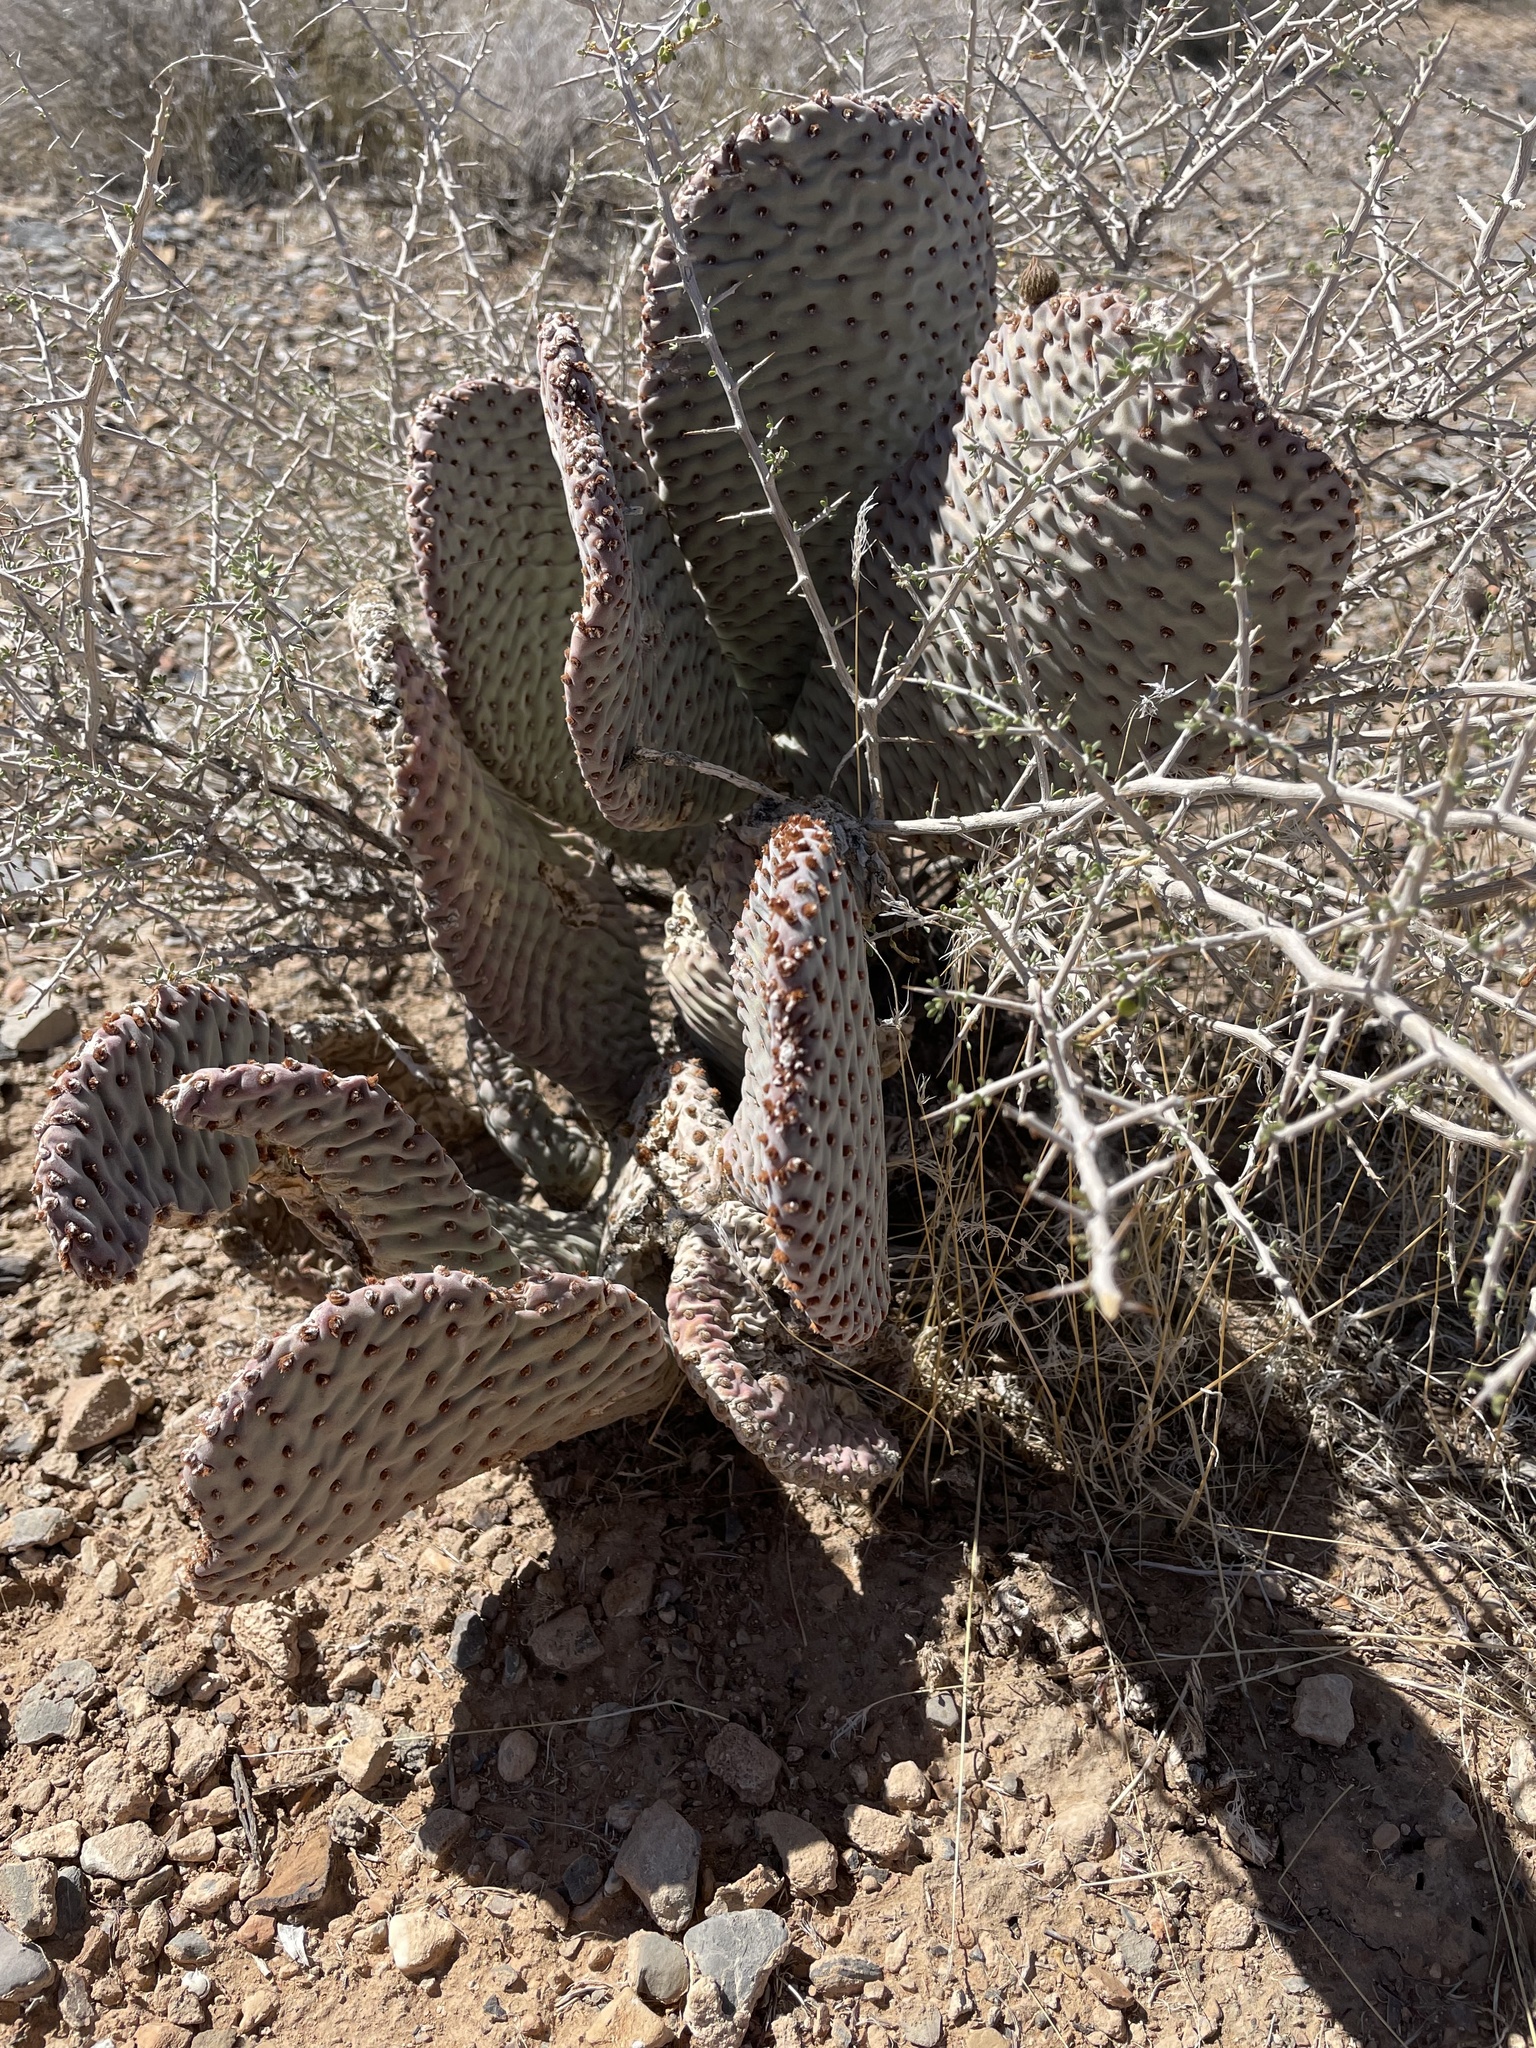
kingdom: Plantae
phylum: Tracheophyta
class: Magnoliopsida
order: Caryophyllales
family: Cactaceae
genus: Opuntia
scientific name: Opuntia basilaris
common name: Beavertail prickly-pear
